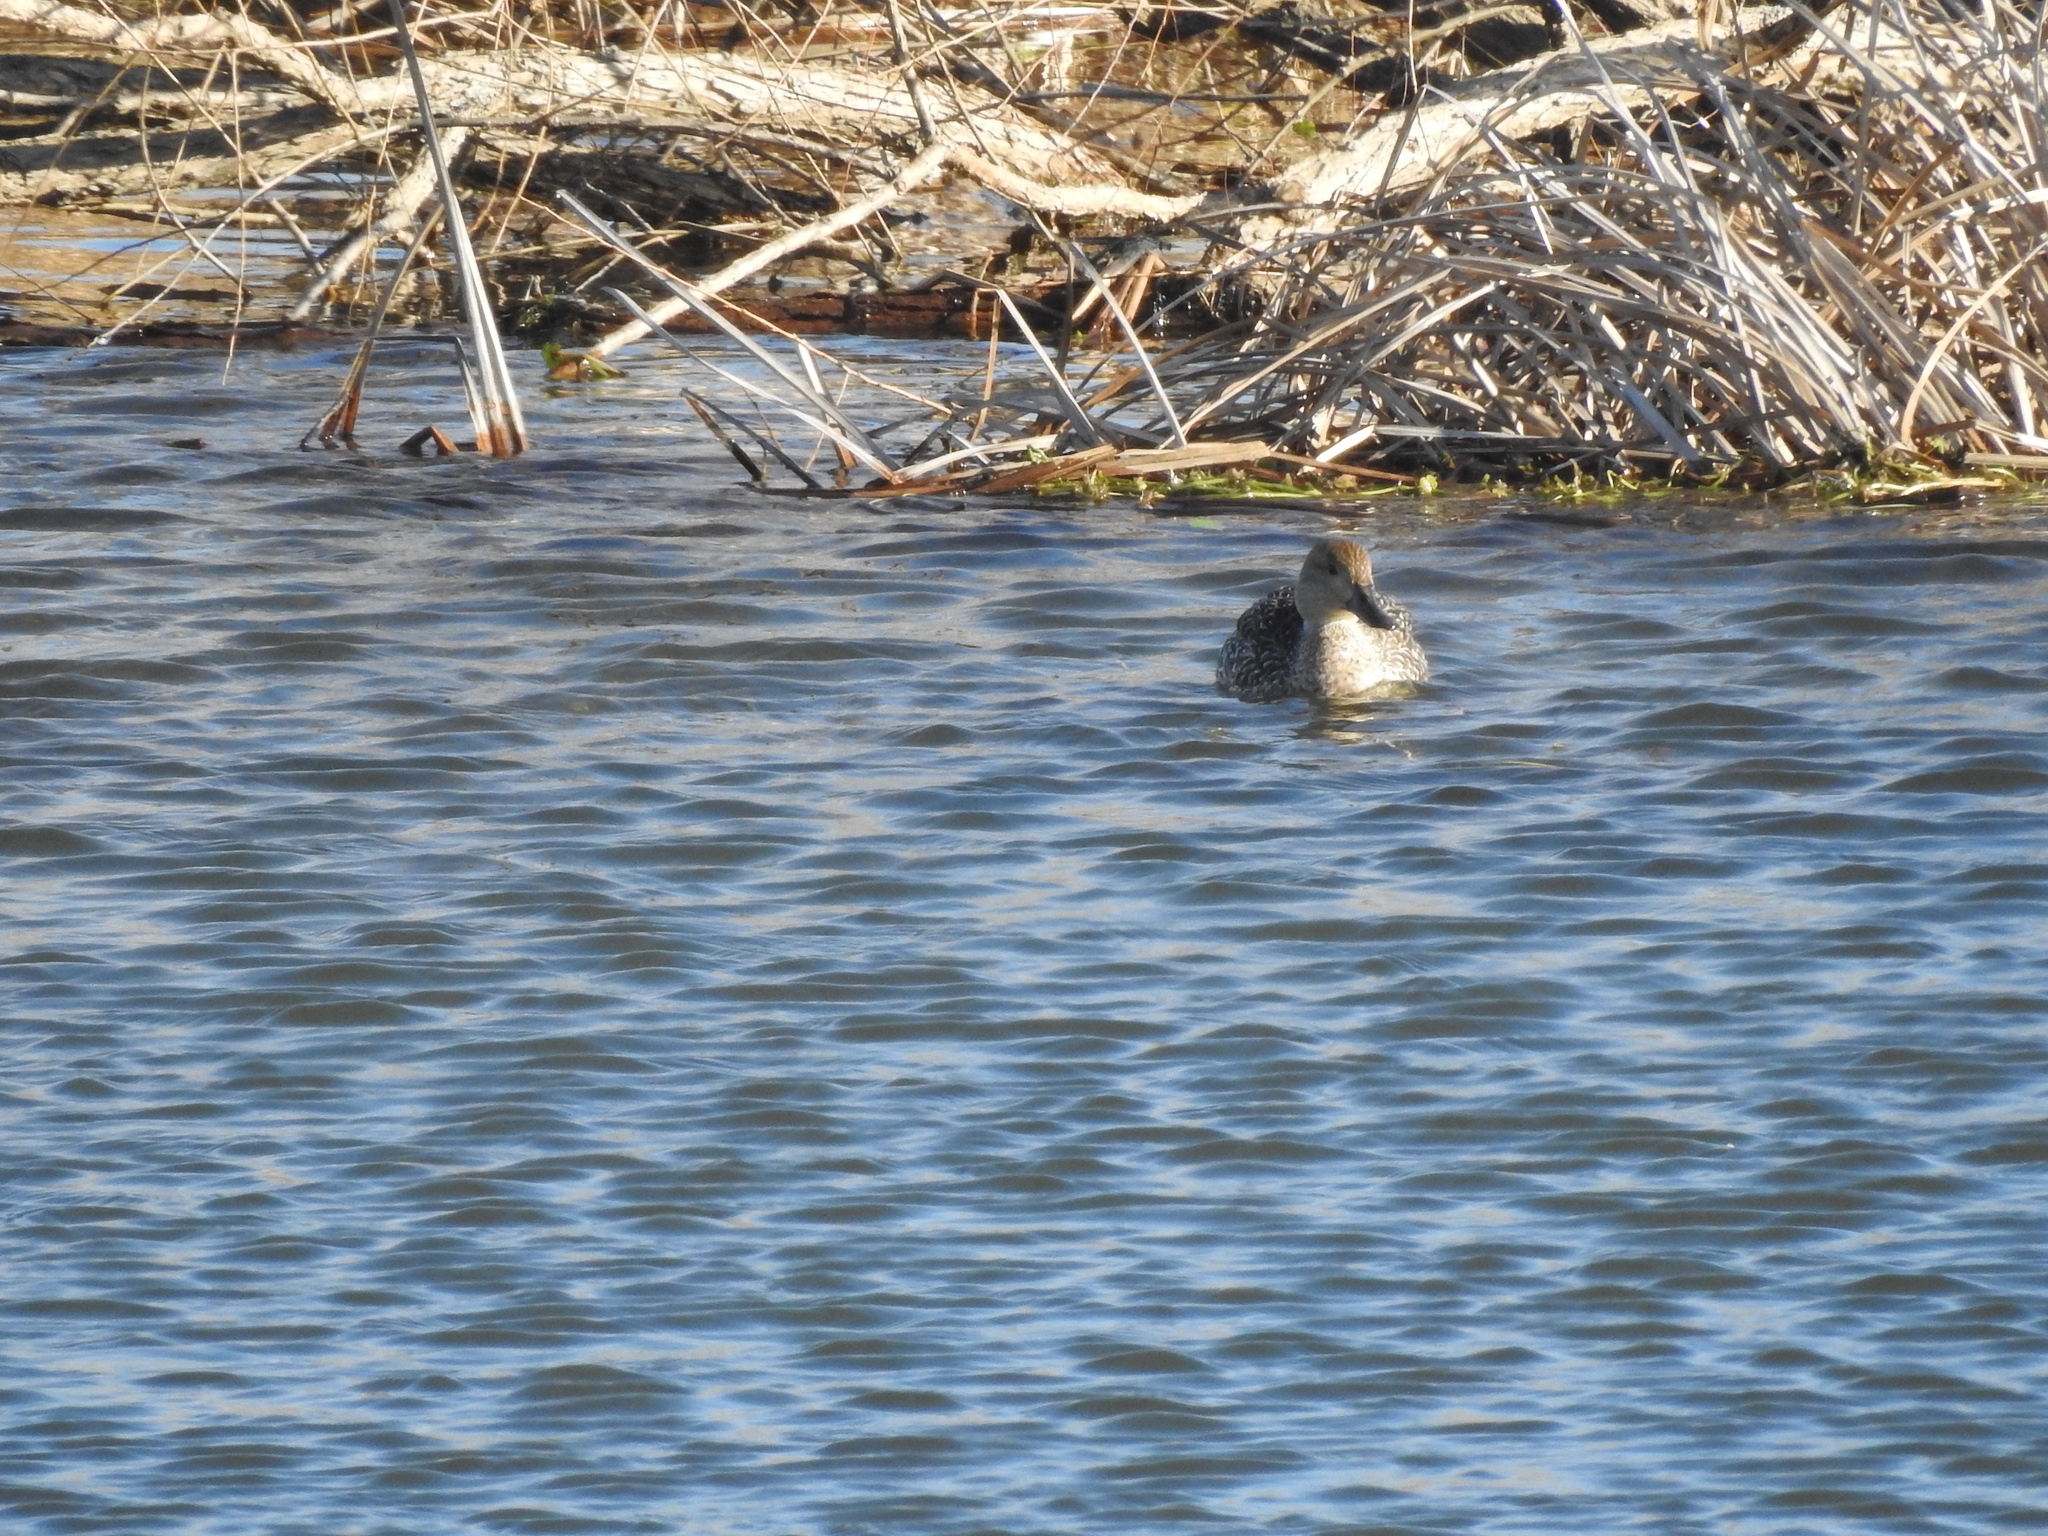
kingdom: Animalia
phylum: Chordata
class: Aves
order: Anseriformes
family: Anatidae
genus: Mareca
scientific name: Mareca strepera
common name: Gadwall
